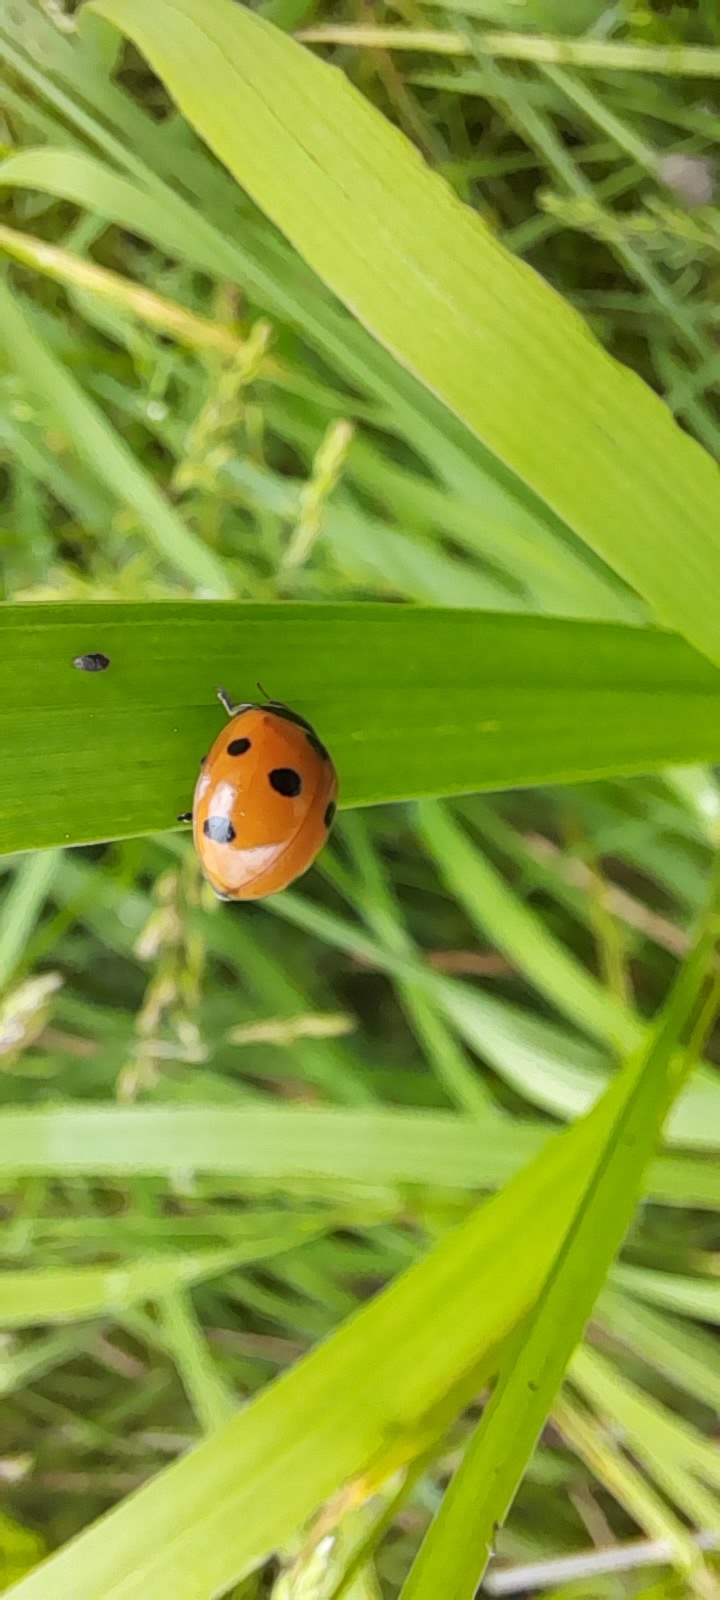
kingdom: Animalia
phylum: Arthropoda
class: Insecta
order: Coleoptera
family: Coccinellidae
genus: Coccinella
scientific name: Coccinella septempunctata
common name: Sevenspotted lady beetle
